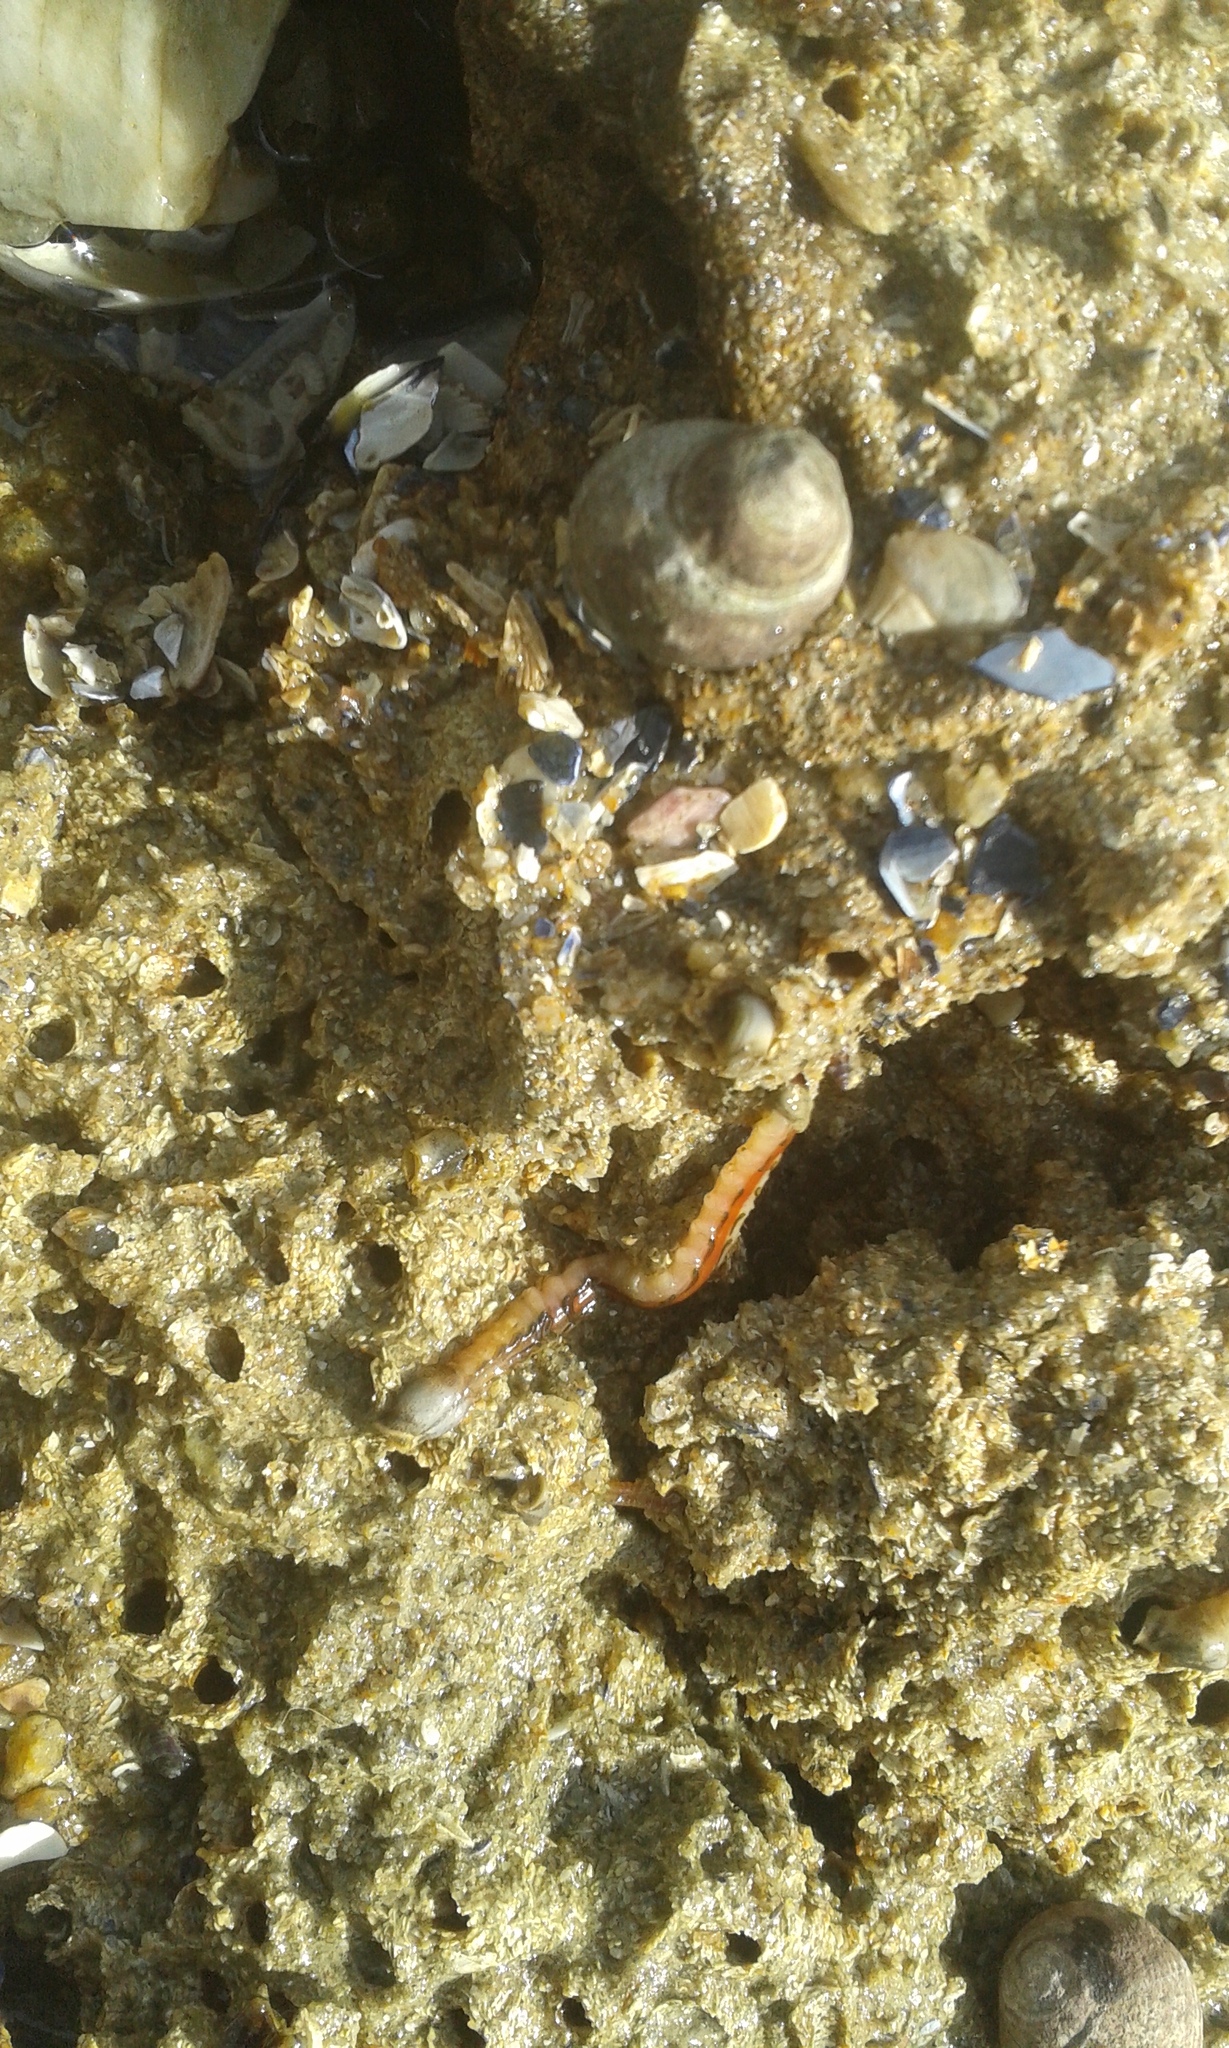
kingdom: Animalia
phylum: Annelida
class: Polychaeta
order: Sabellida
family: Sabellariidae
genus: Sabellaria
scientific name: Sabellaria alveolata
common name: Honeycomb worm
